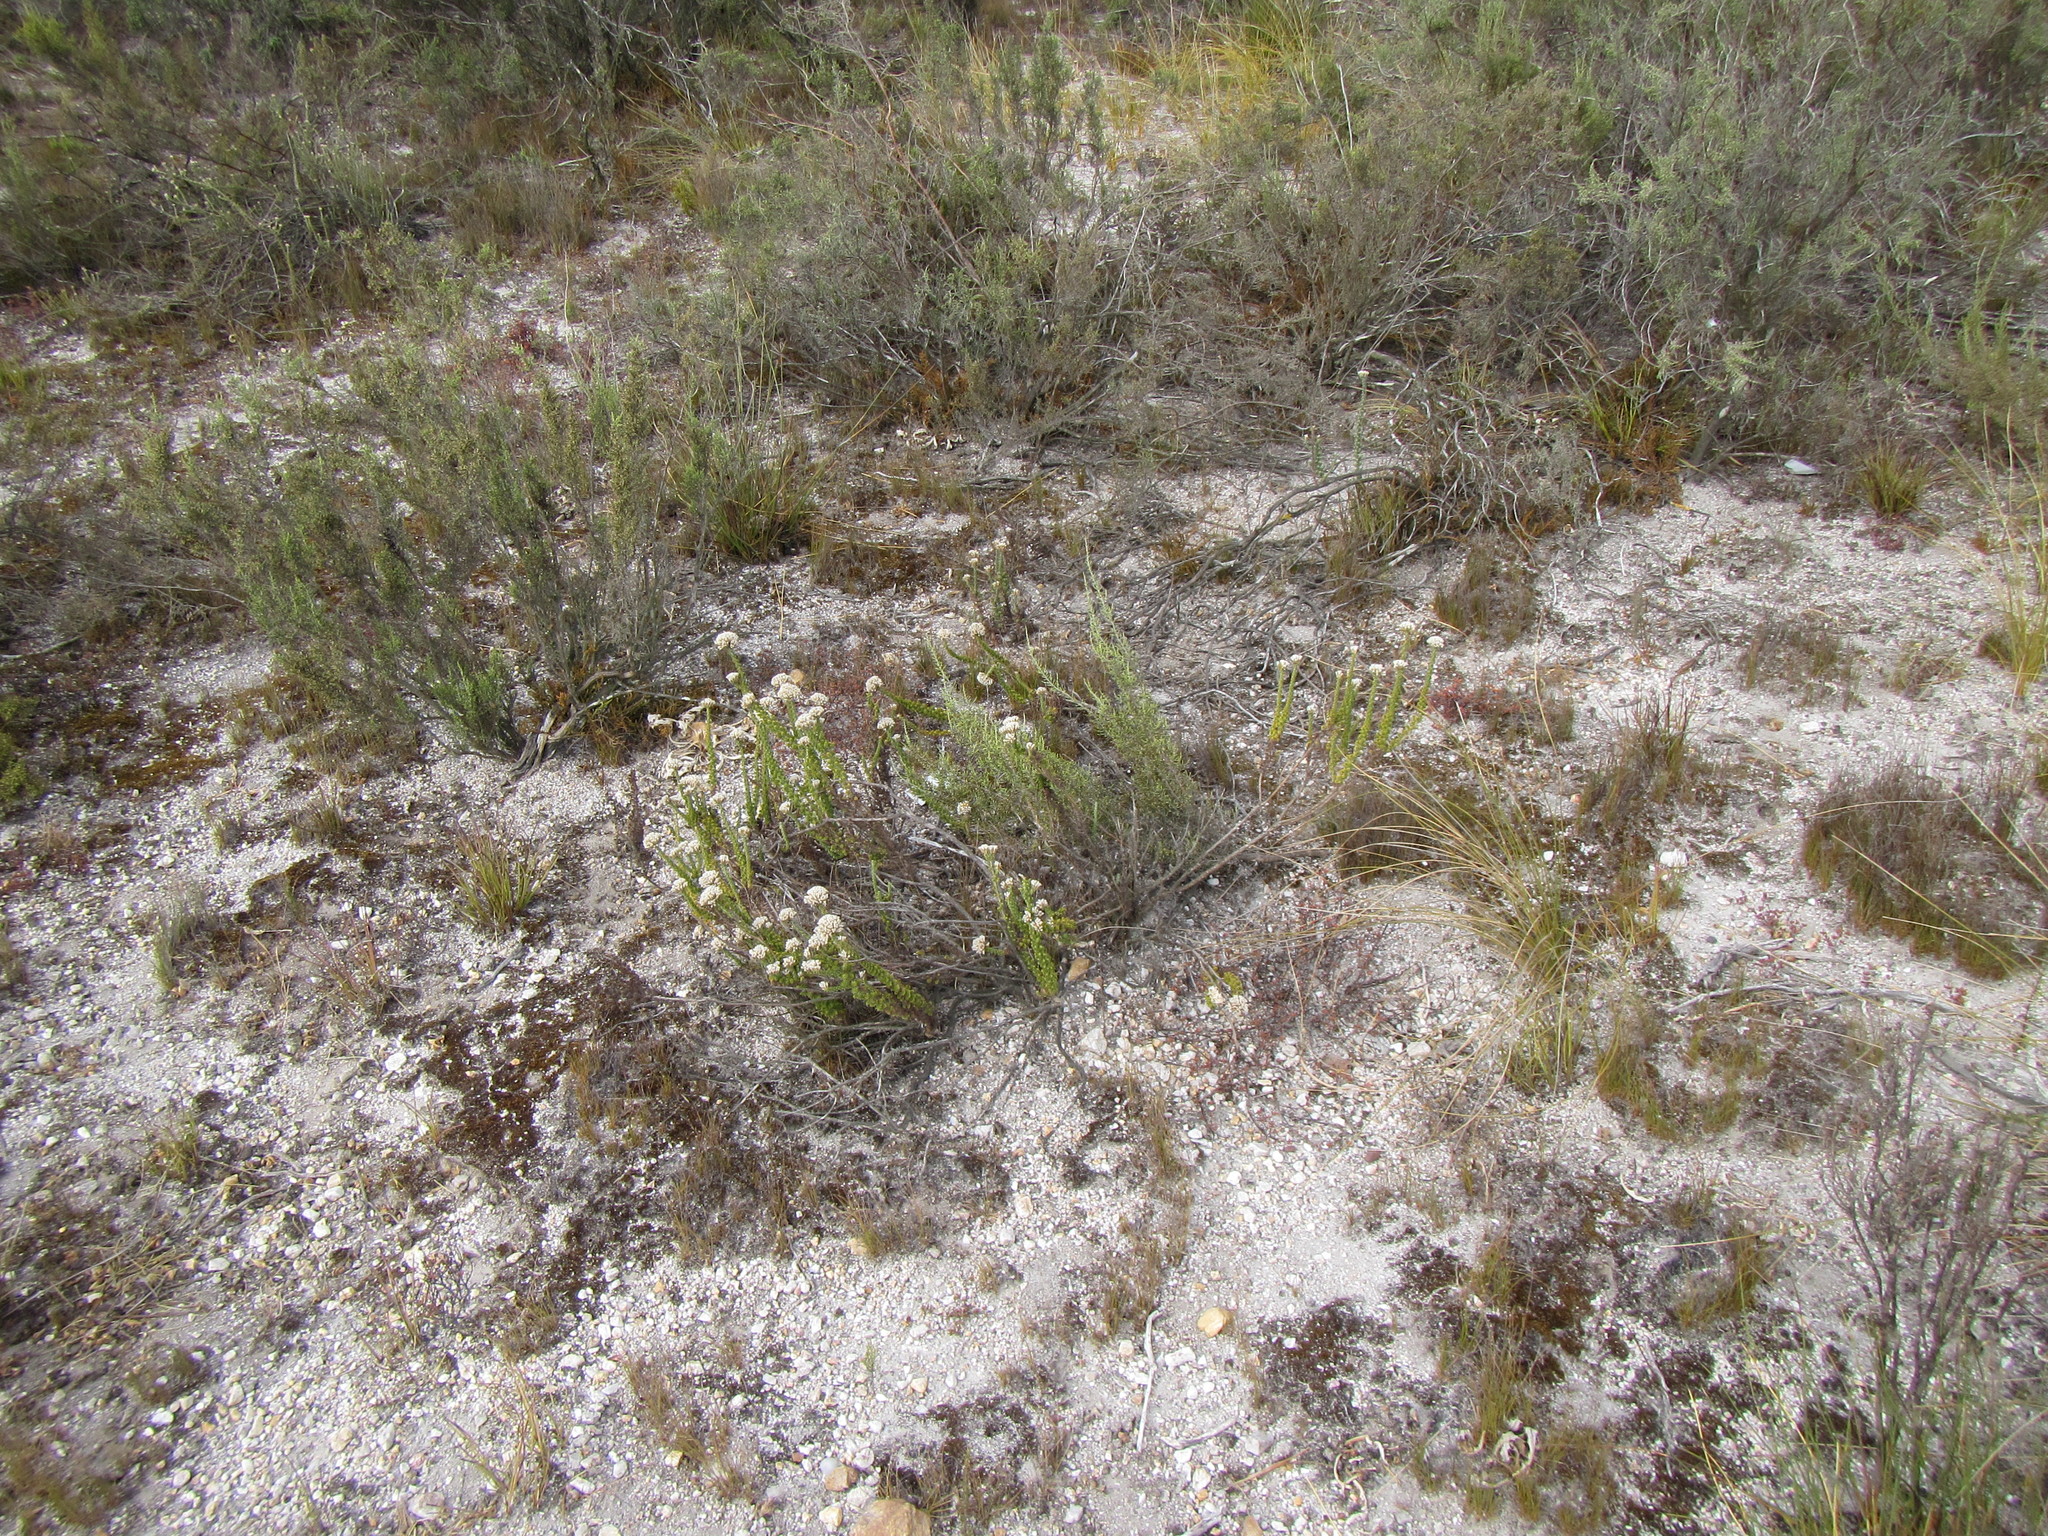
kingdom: Plantae
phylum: Tracheophyta
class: Magnoliopsida
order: Asterales
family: Asteraceae
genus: Planea
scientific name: Planea schlechteri
